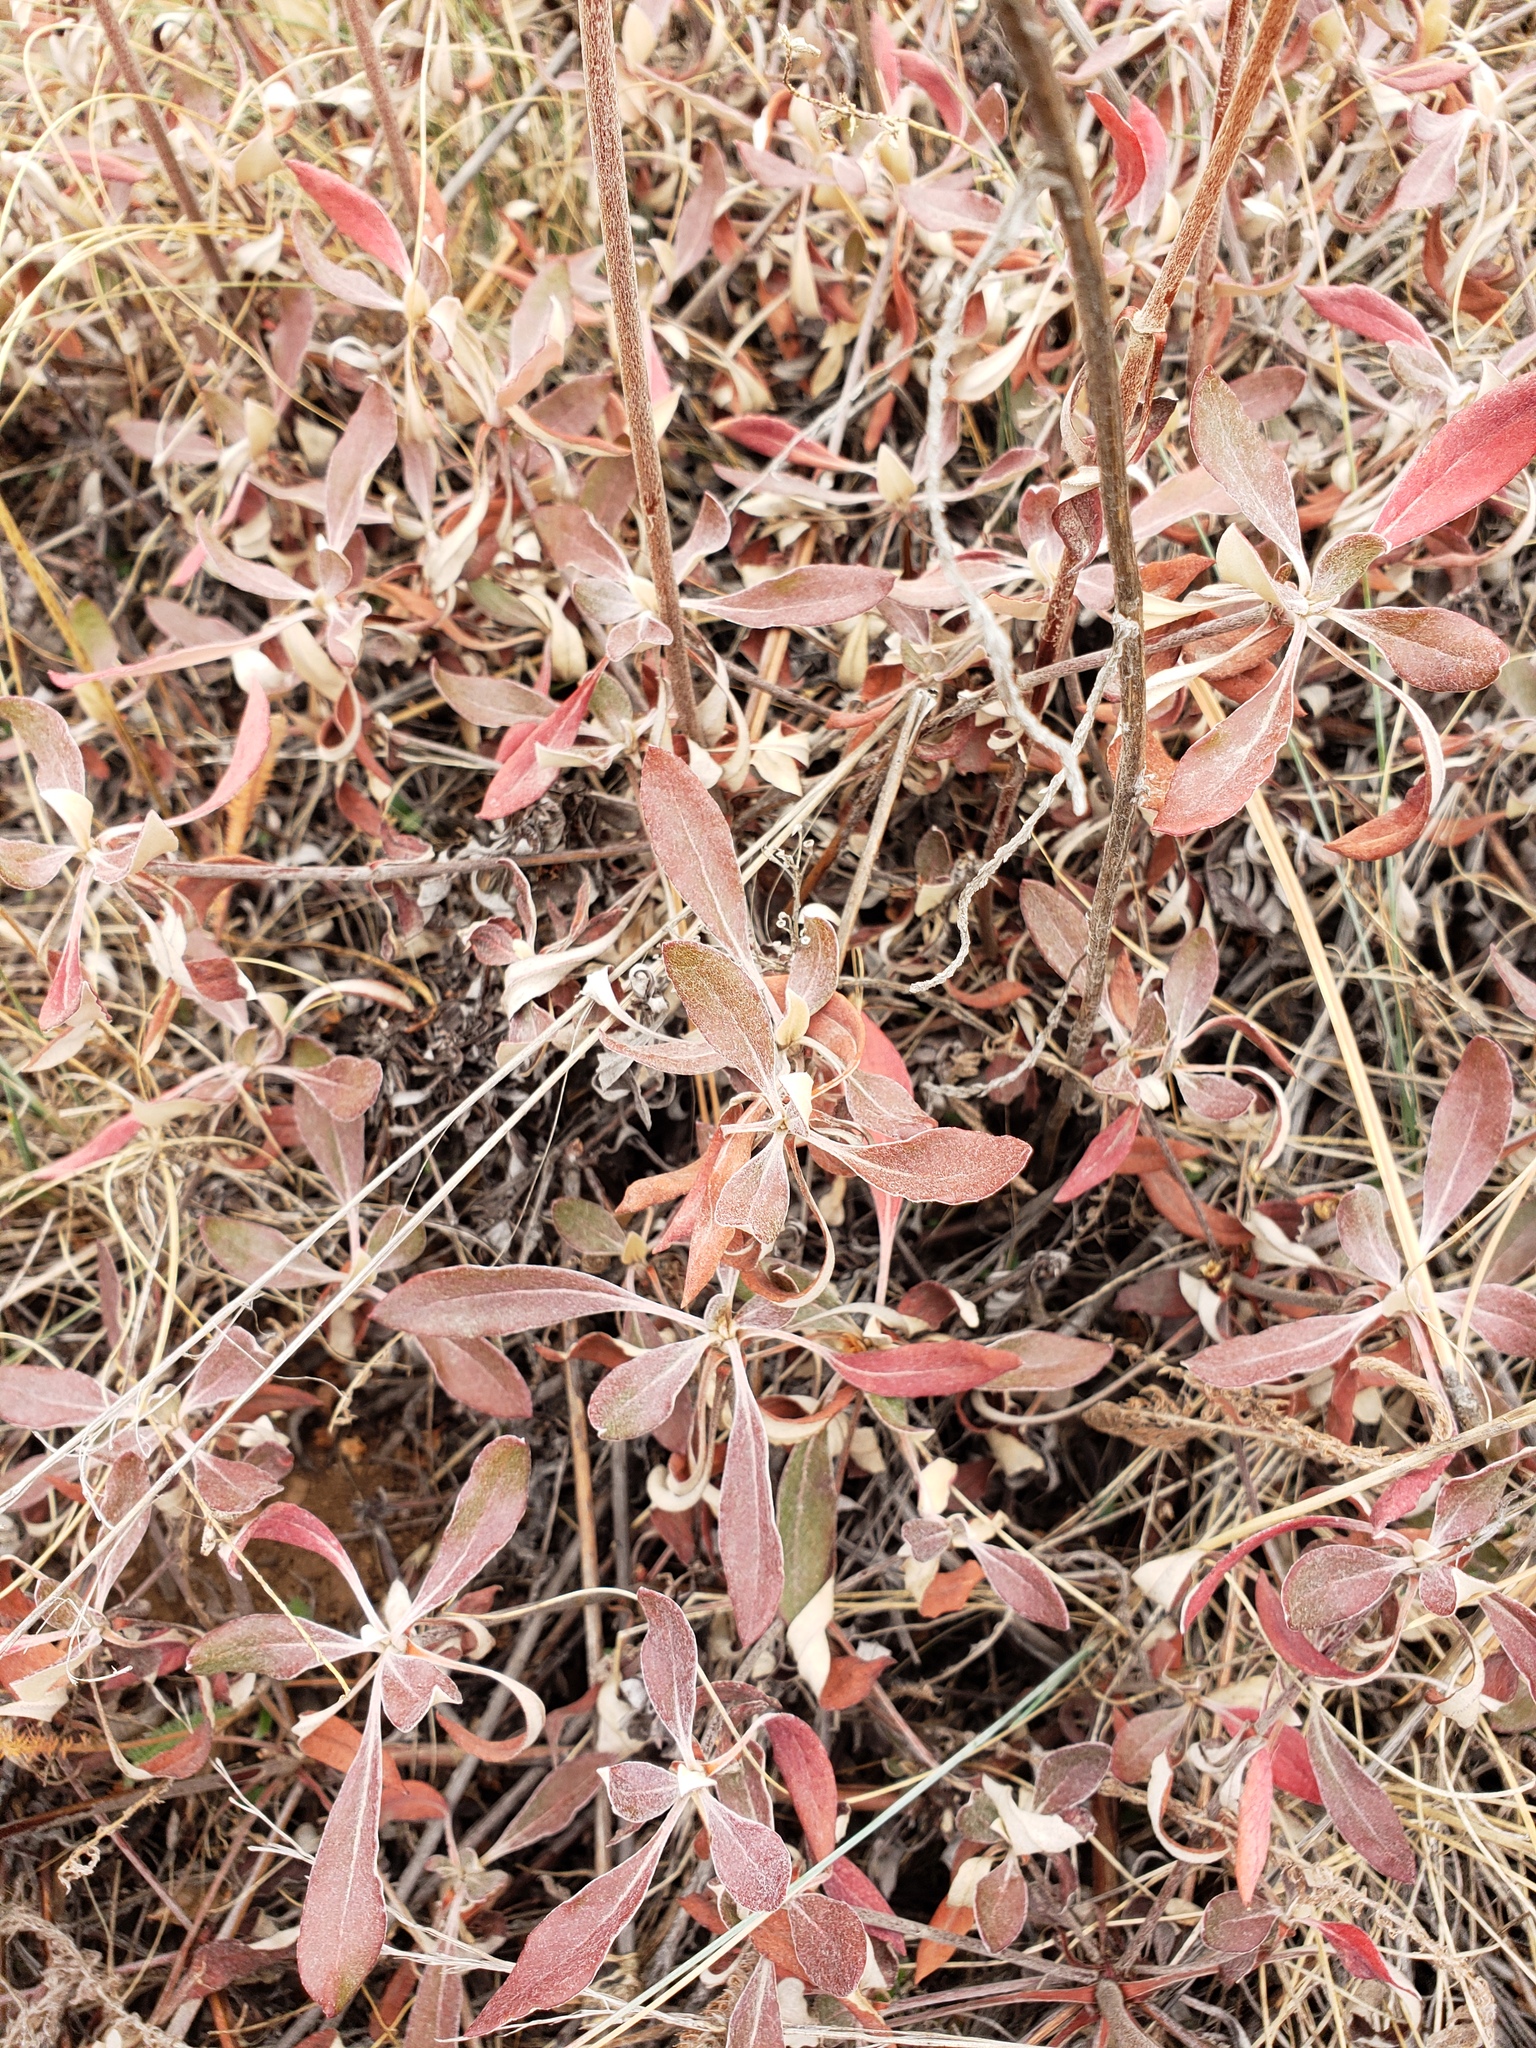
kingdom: Plantae
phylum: Tracheophyta
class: Magnoliopsida
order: Caryophyllales
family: Polygonaceae
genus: Eriogonum
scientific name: Eriogonum heracleoides
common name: Wyeth's buckwheat
